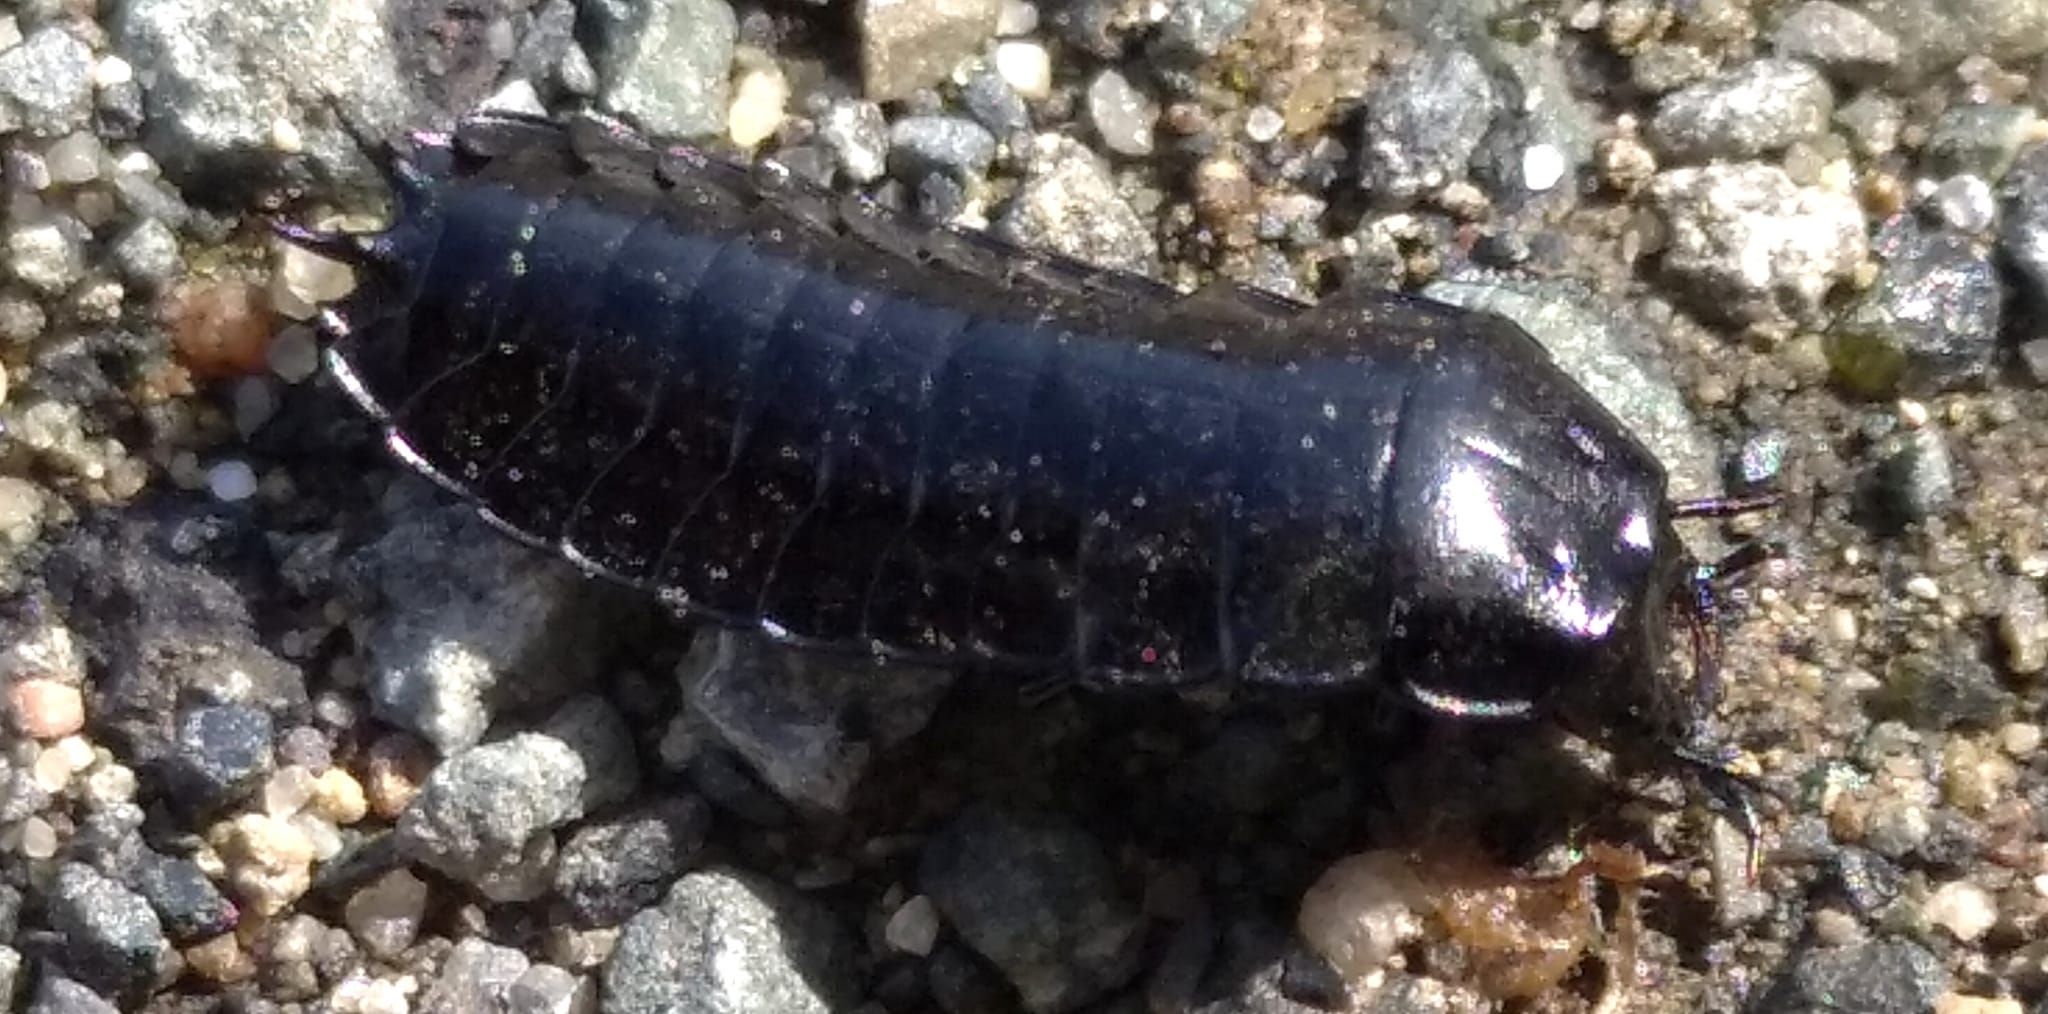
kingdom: Animalia
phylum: Arthropoda
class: Insecta
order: Coleoptera
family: Carabidae
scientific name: Carabidae
